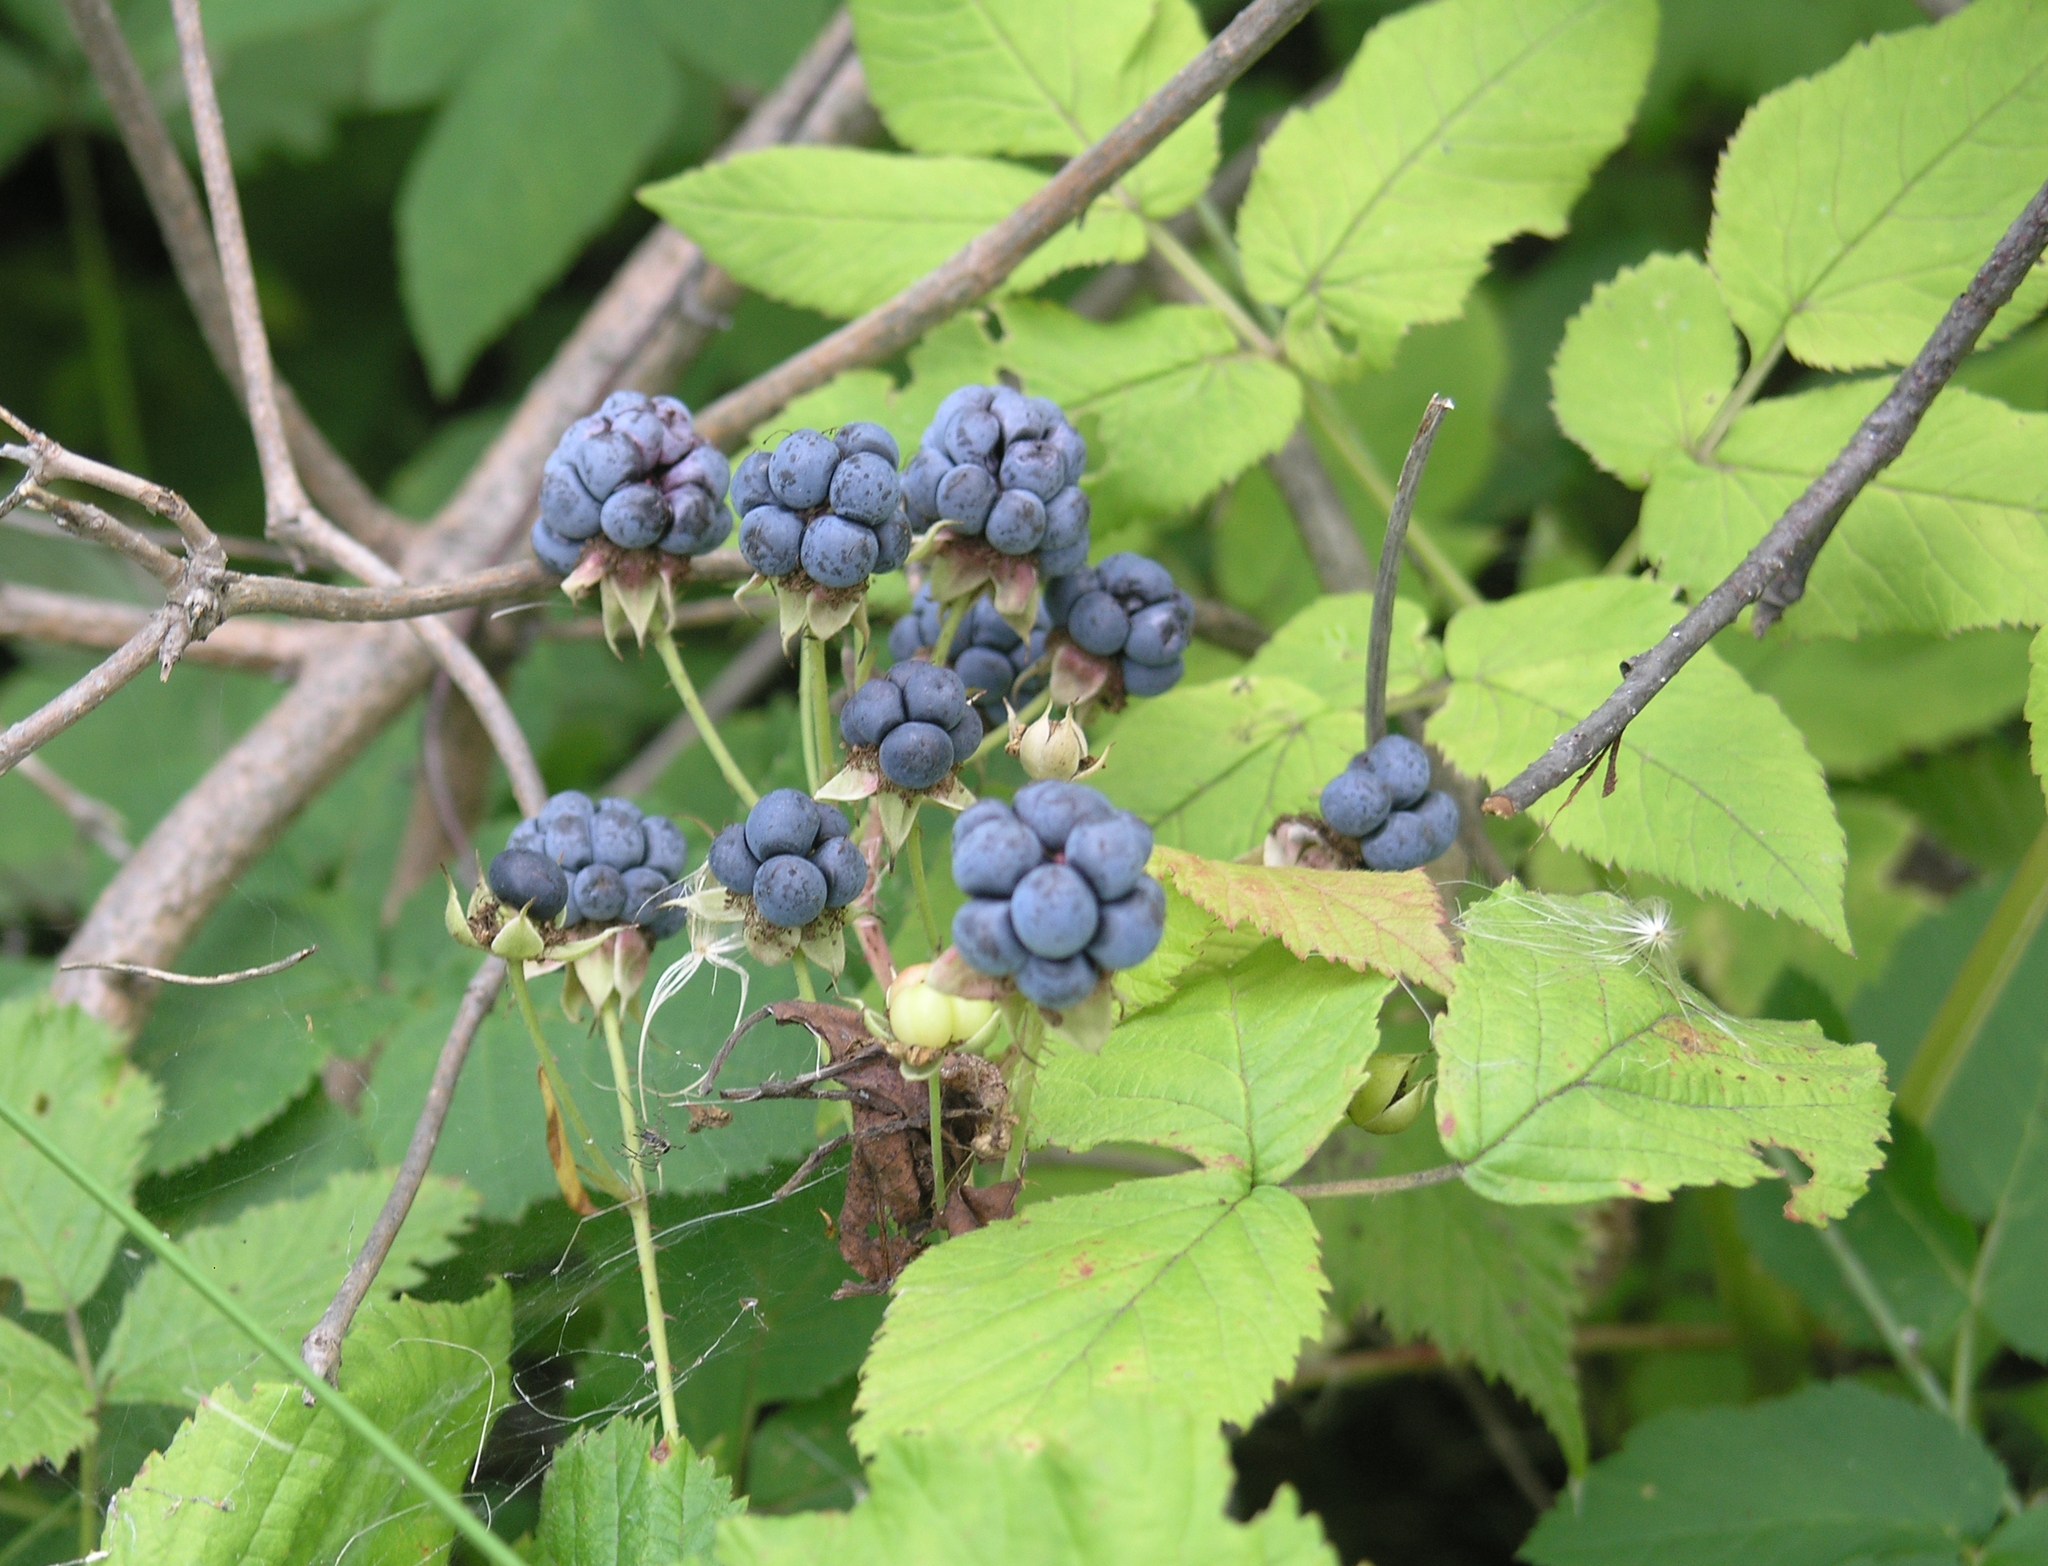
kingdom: Plantae
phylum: Tracheophyta
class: Magnoliopsida
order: Rosales
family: Rosaceae
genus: Rubus
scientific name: Rubus caesius
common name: Dewberry
